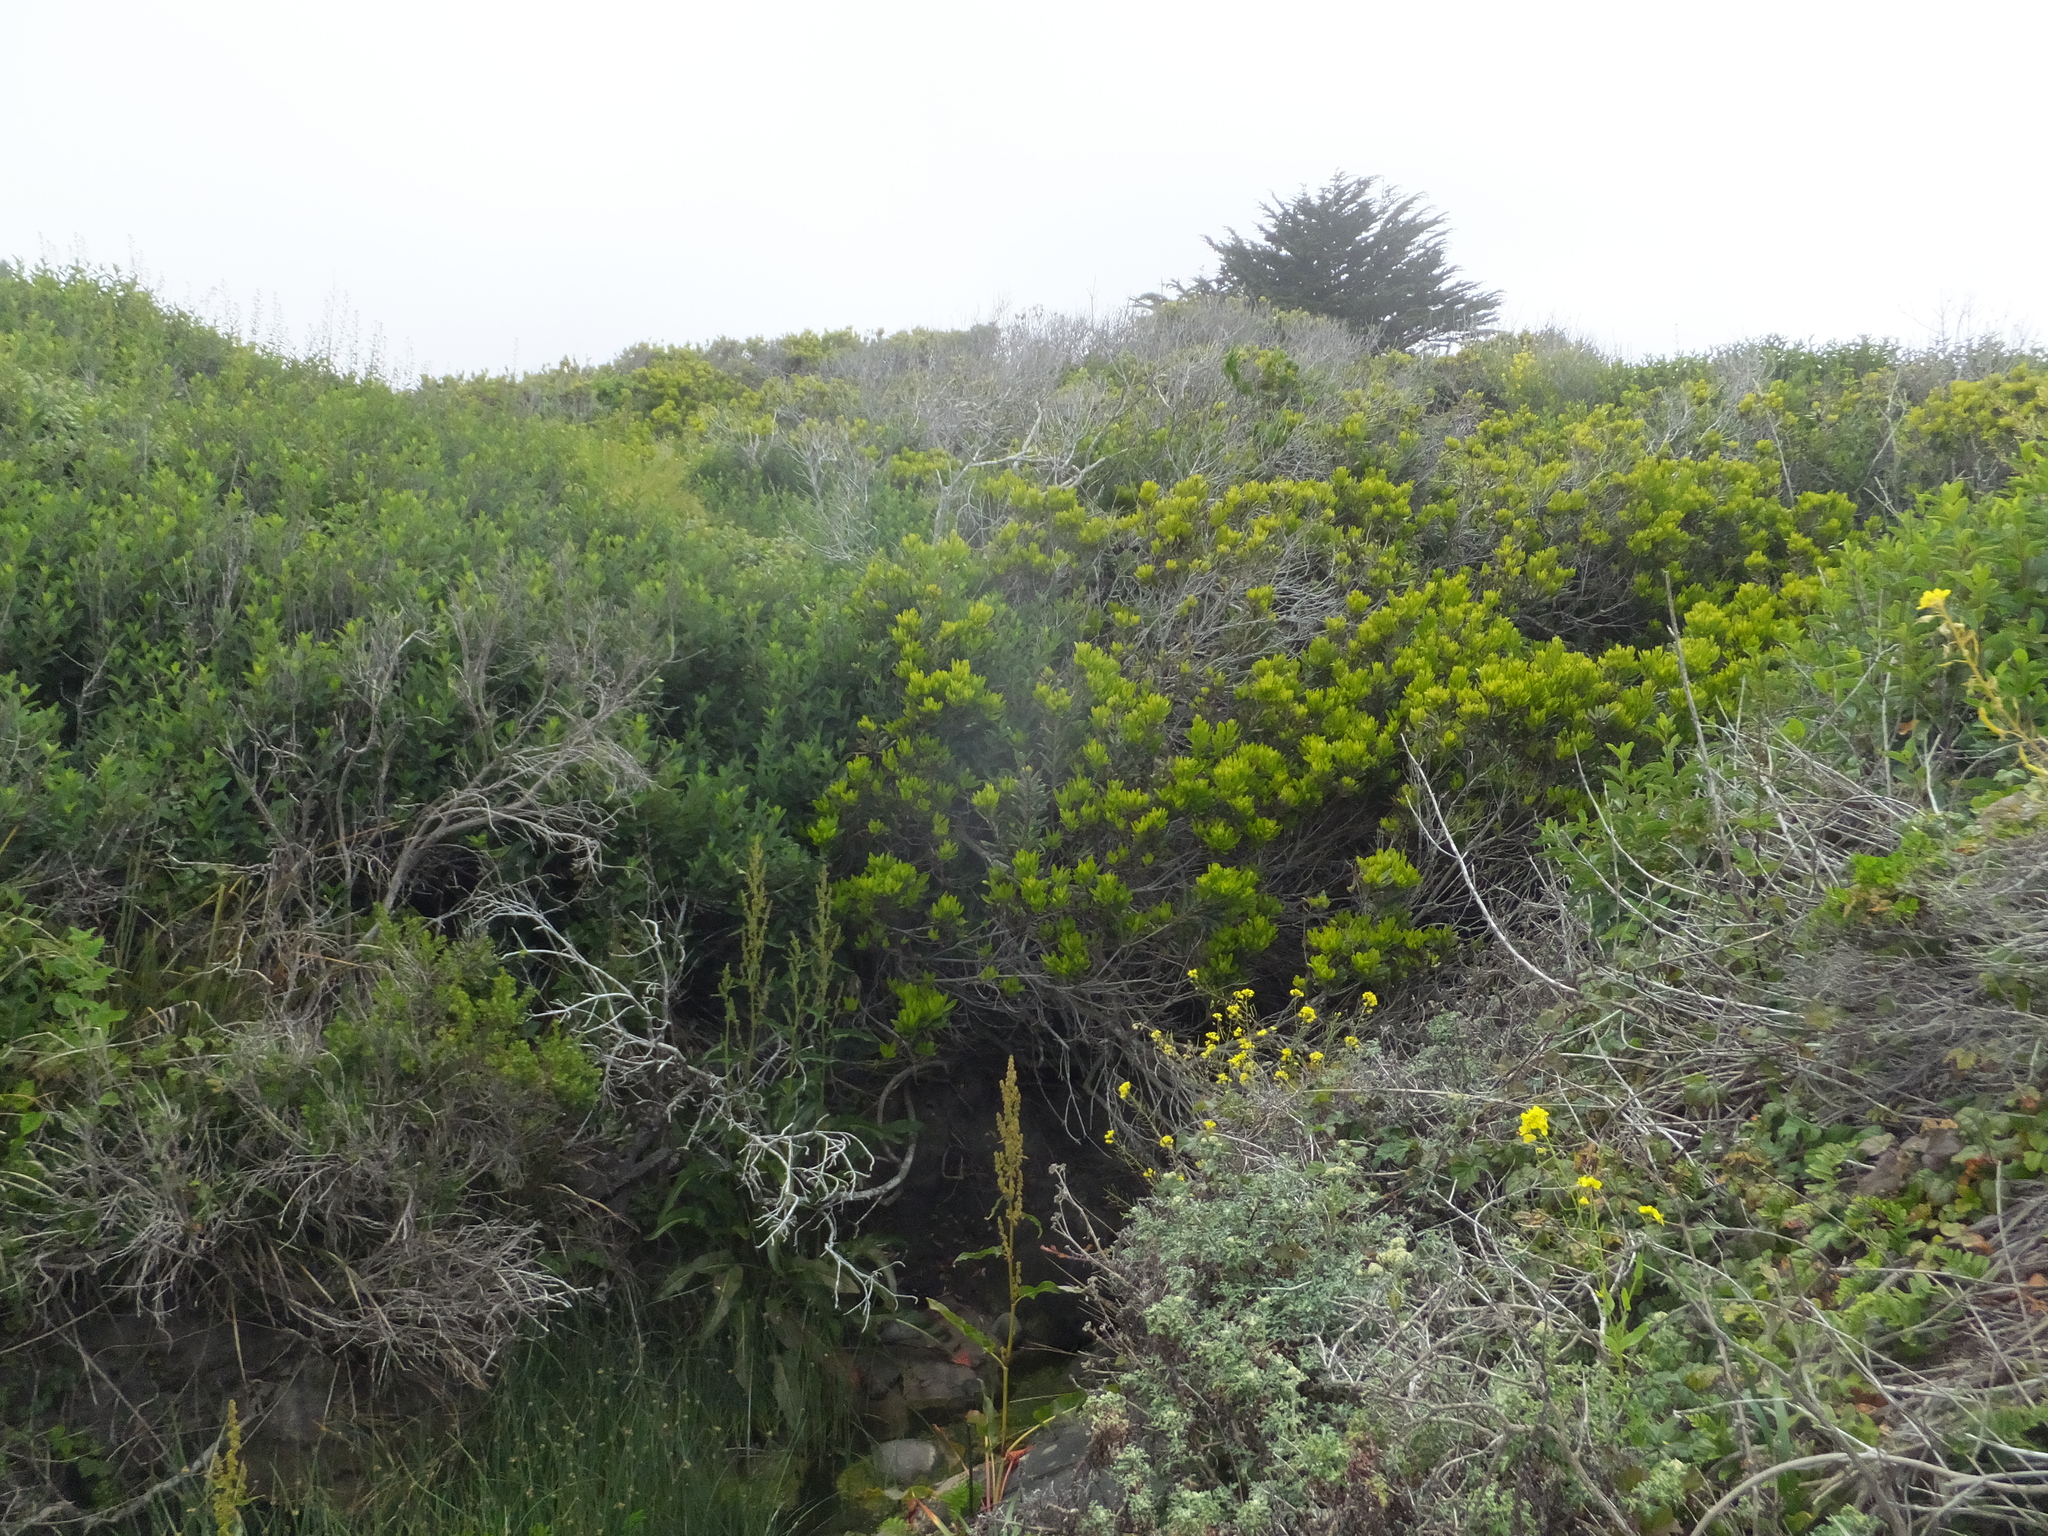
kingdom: Plantae
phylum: Tracheophyta
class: Magnoliopsida
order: Fagales
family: Myricaceae
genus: Morella
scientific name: Morella californica
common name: California wax-myrtle
